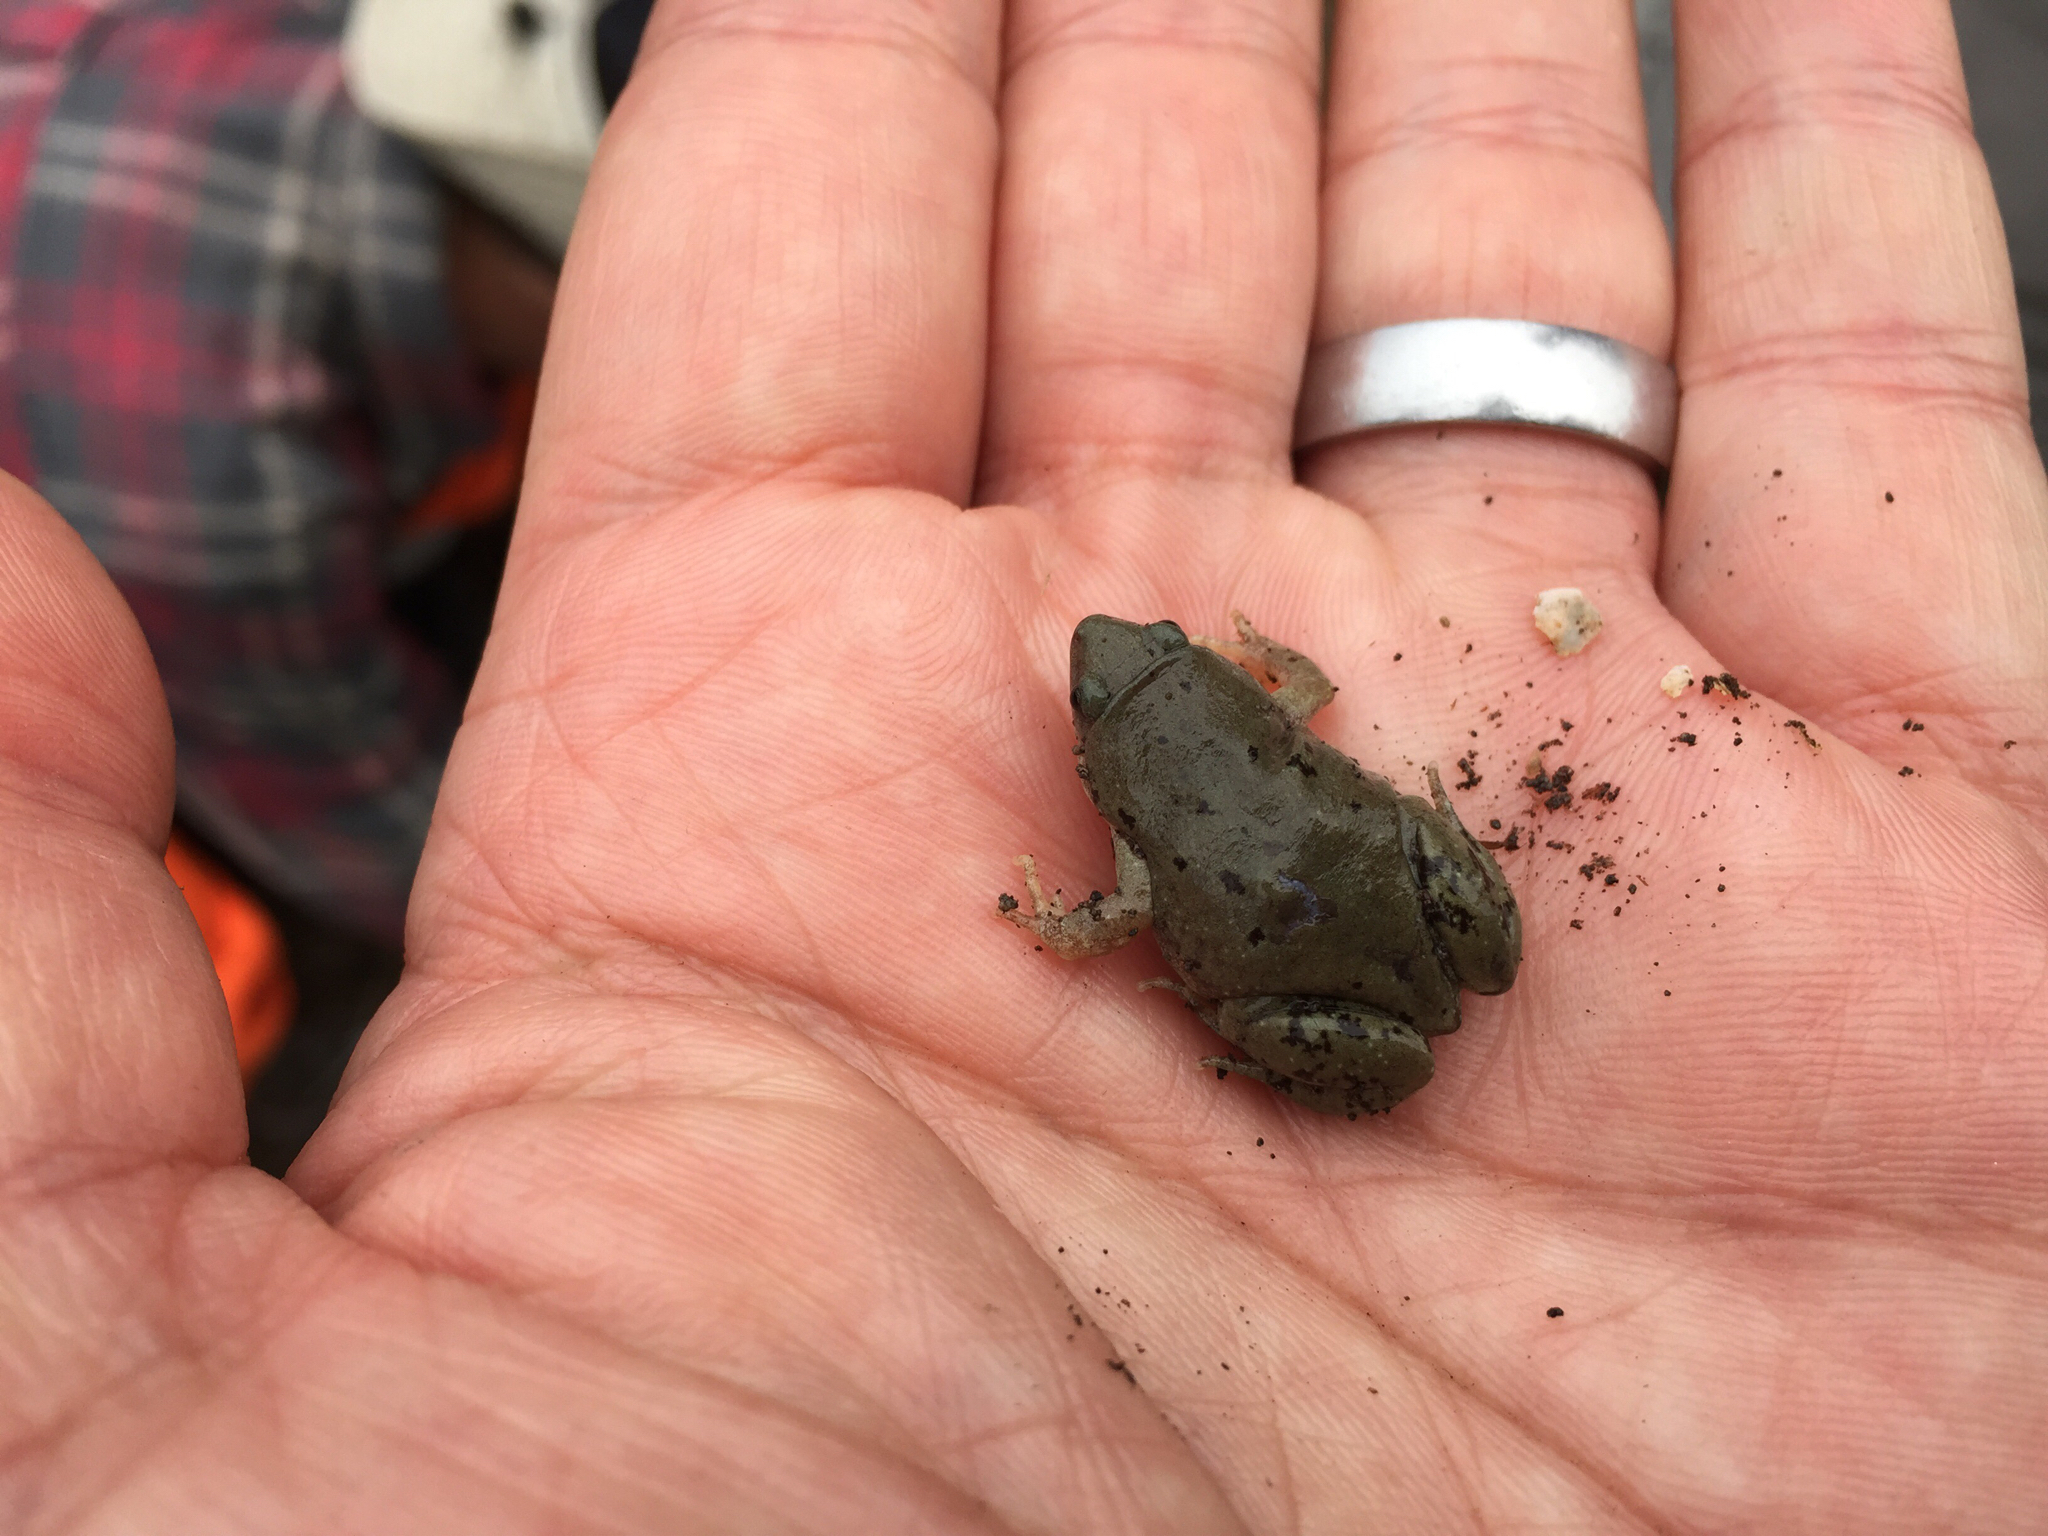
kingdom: Animalia
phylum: Chordata
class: Amphibia
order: Anura
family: Microhylidae
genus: Gastrophryne
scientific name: Gastrophryne olivacea
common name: Great plains narrow-mouthed toad
